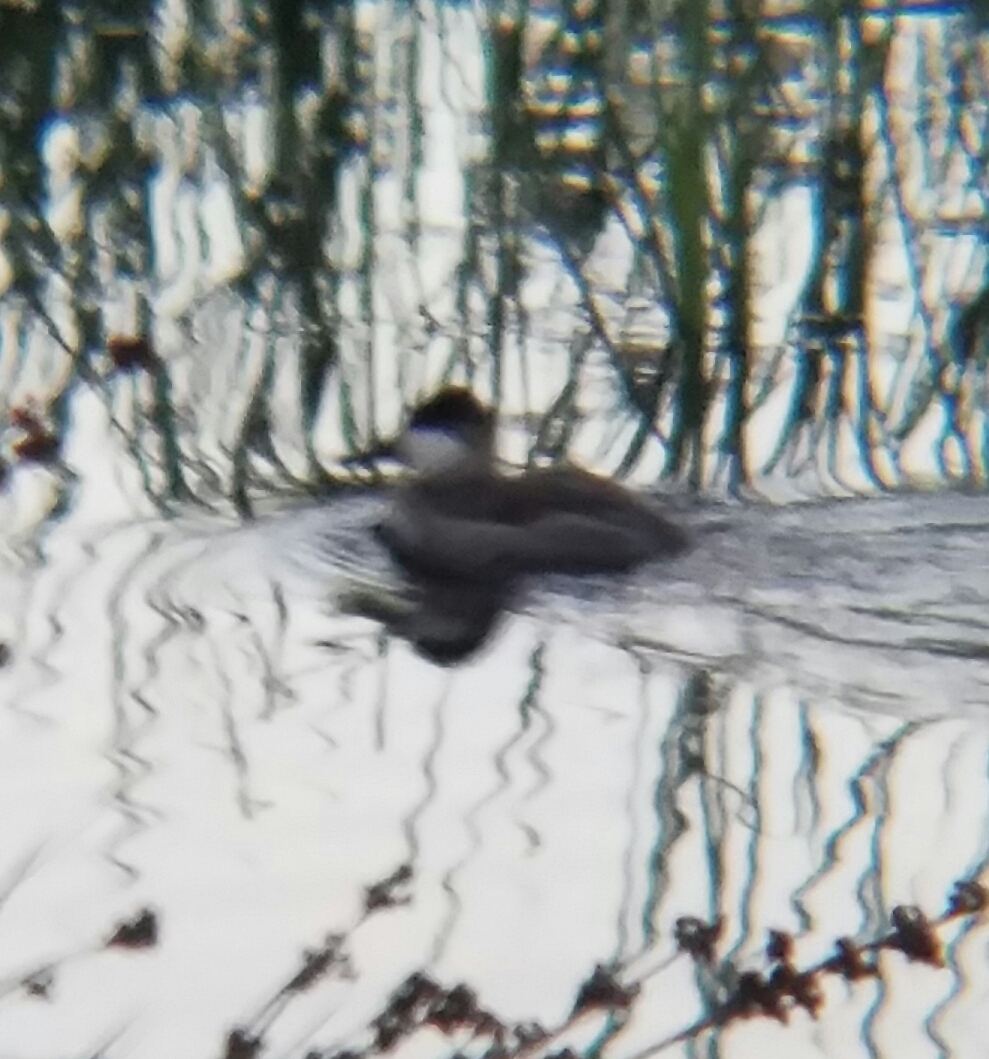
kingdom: Animalia
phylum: Chordata
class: Aves
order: Anseriformes
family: Anatidae
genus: Oxyura
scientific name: Oxyura jamaicensis
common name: Ruddy duck
